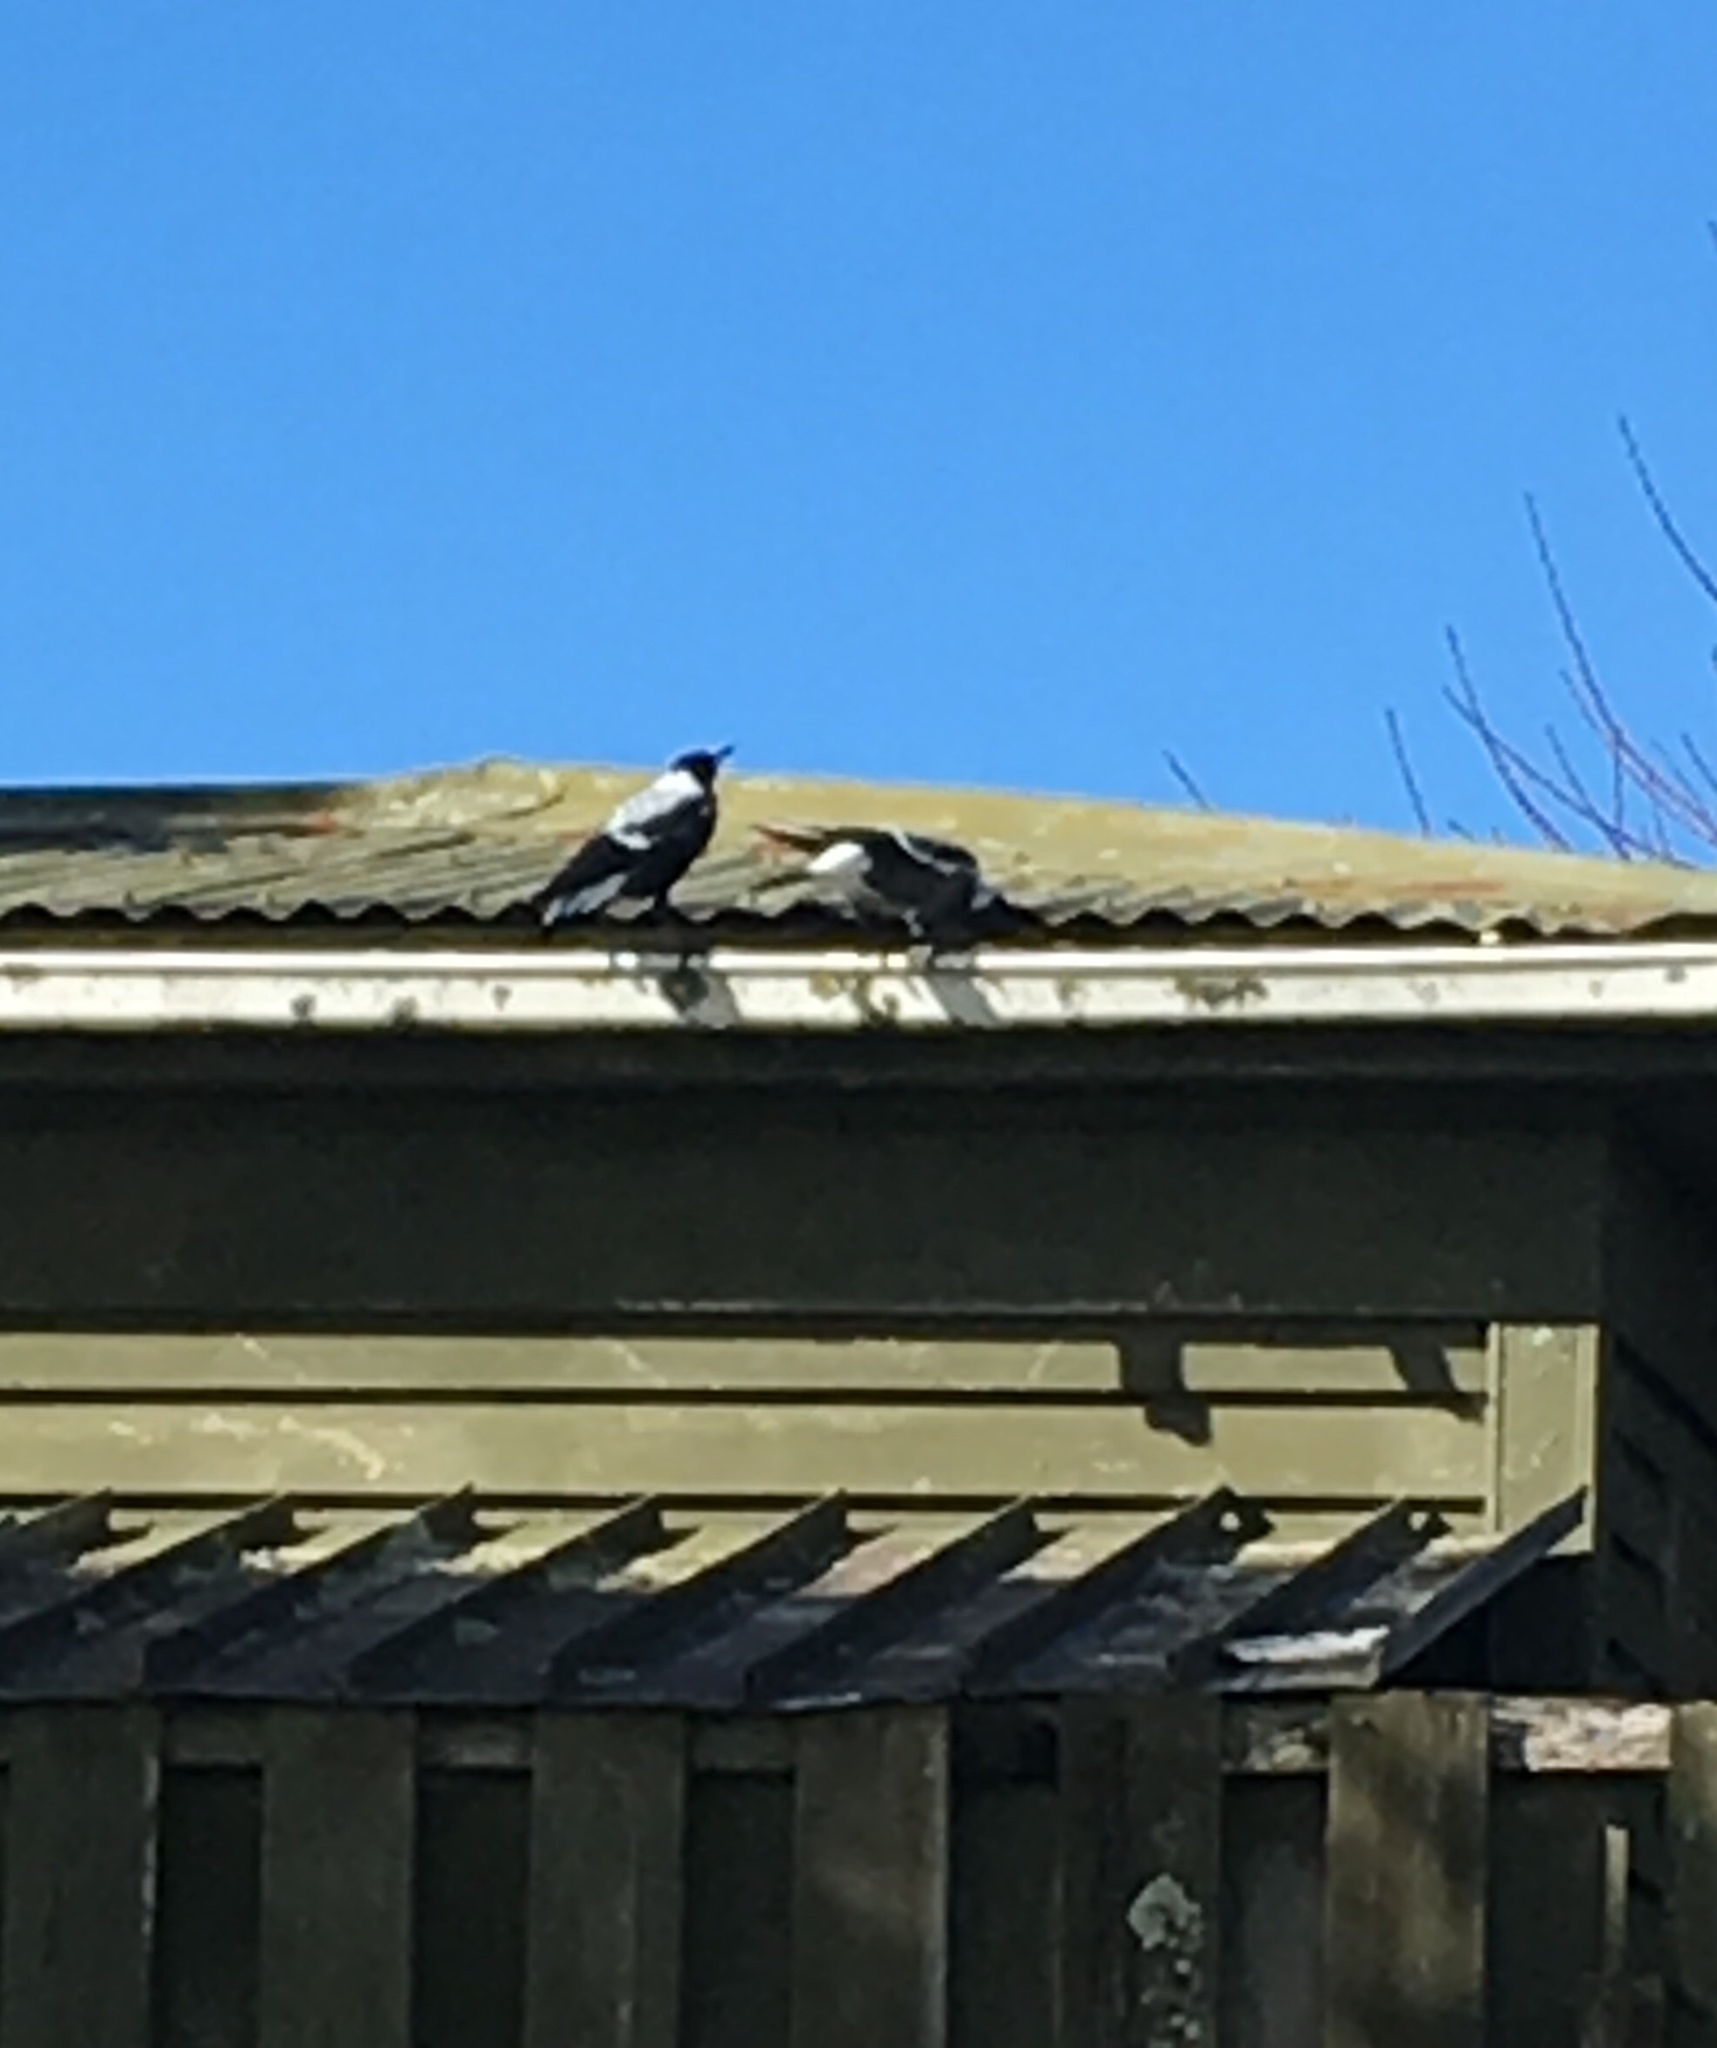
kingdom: Animalia
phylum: Chordata
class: Aves
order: Passeriformes
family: Cracticidae
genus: Gymnorhina
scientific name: Gymnorhina tibicen
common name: Australian magpie
